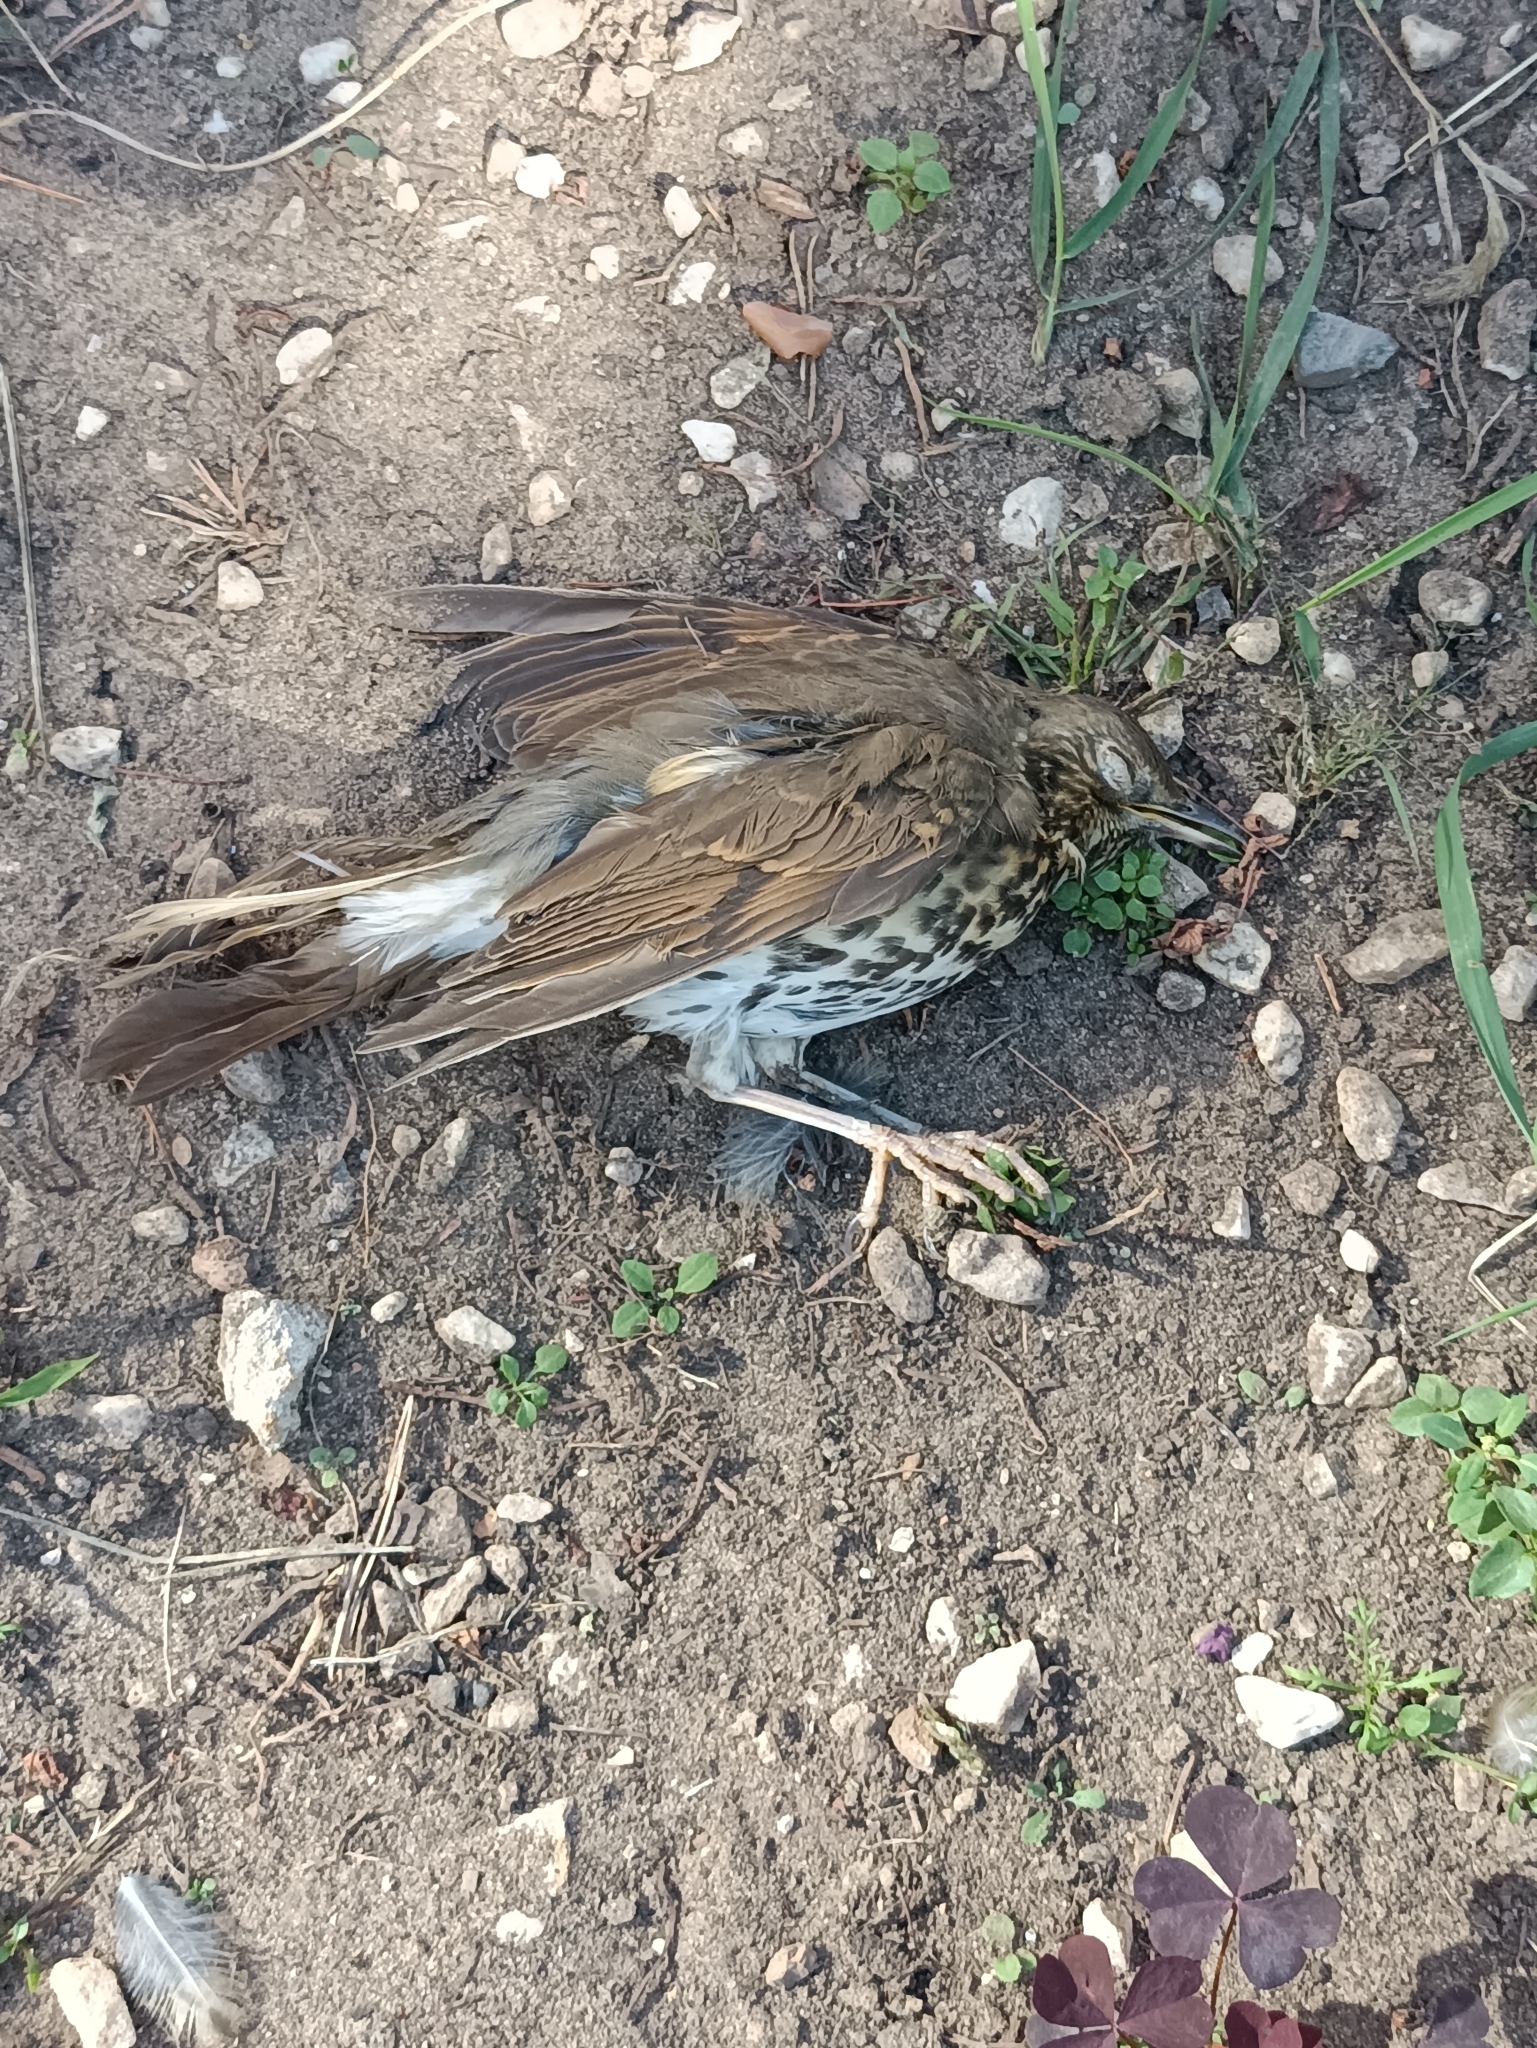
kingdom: Animalia
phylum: Chordata
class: Aves
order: Passeriformes
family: Turdidae
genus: Turdus
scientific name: Turdus philomelos
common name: Song thrush
